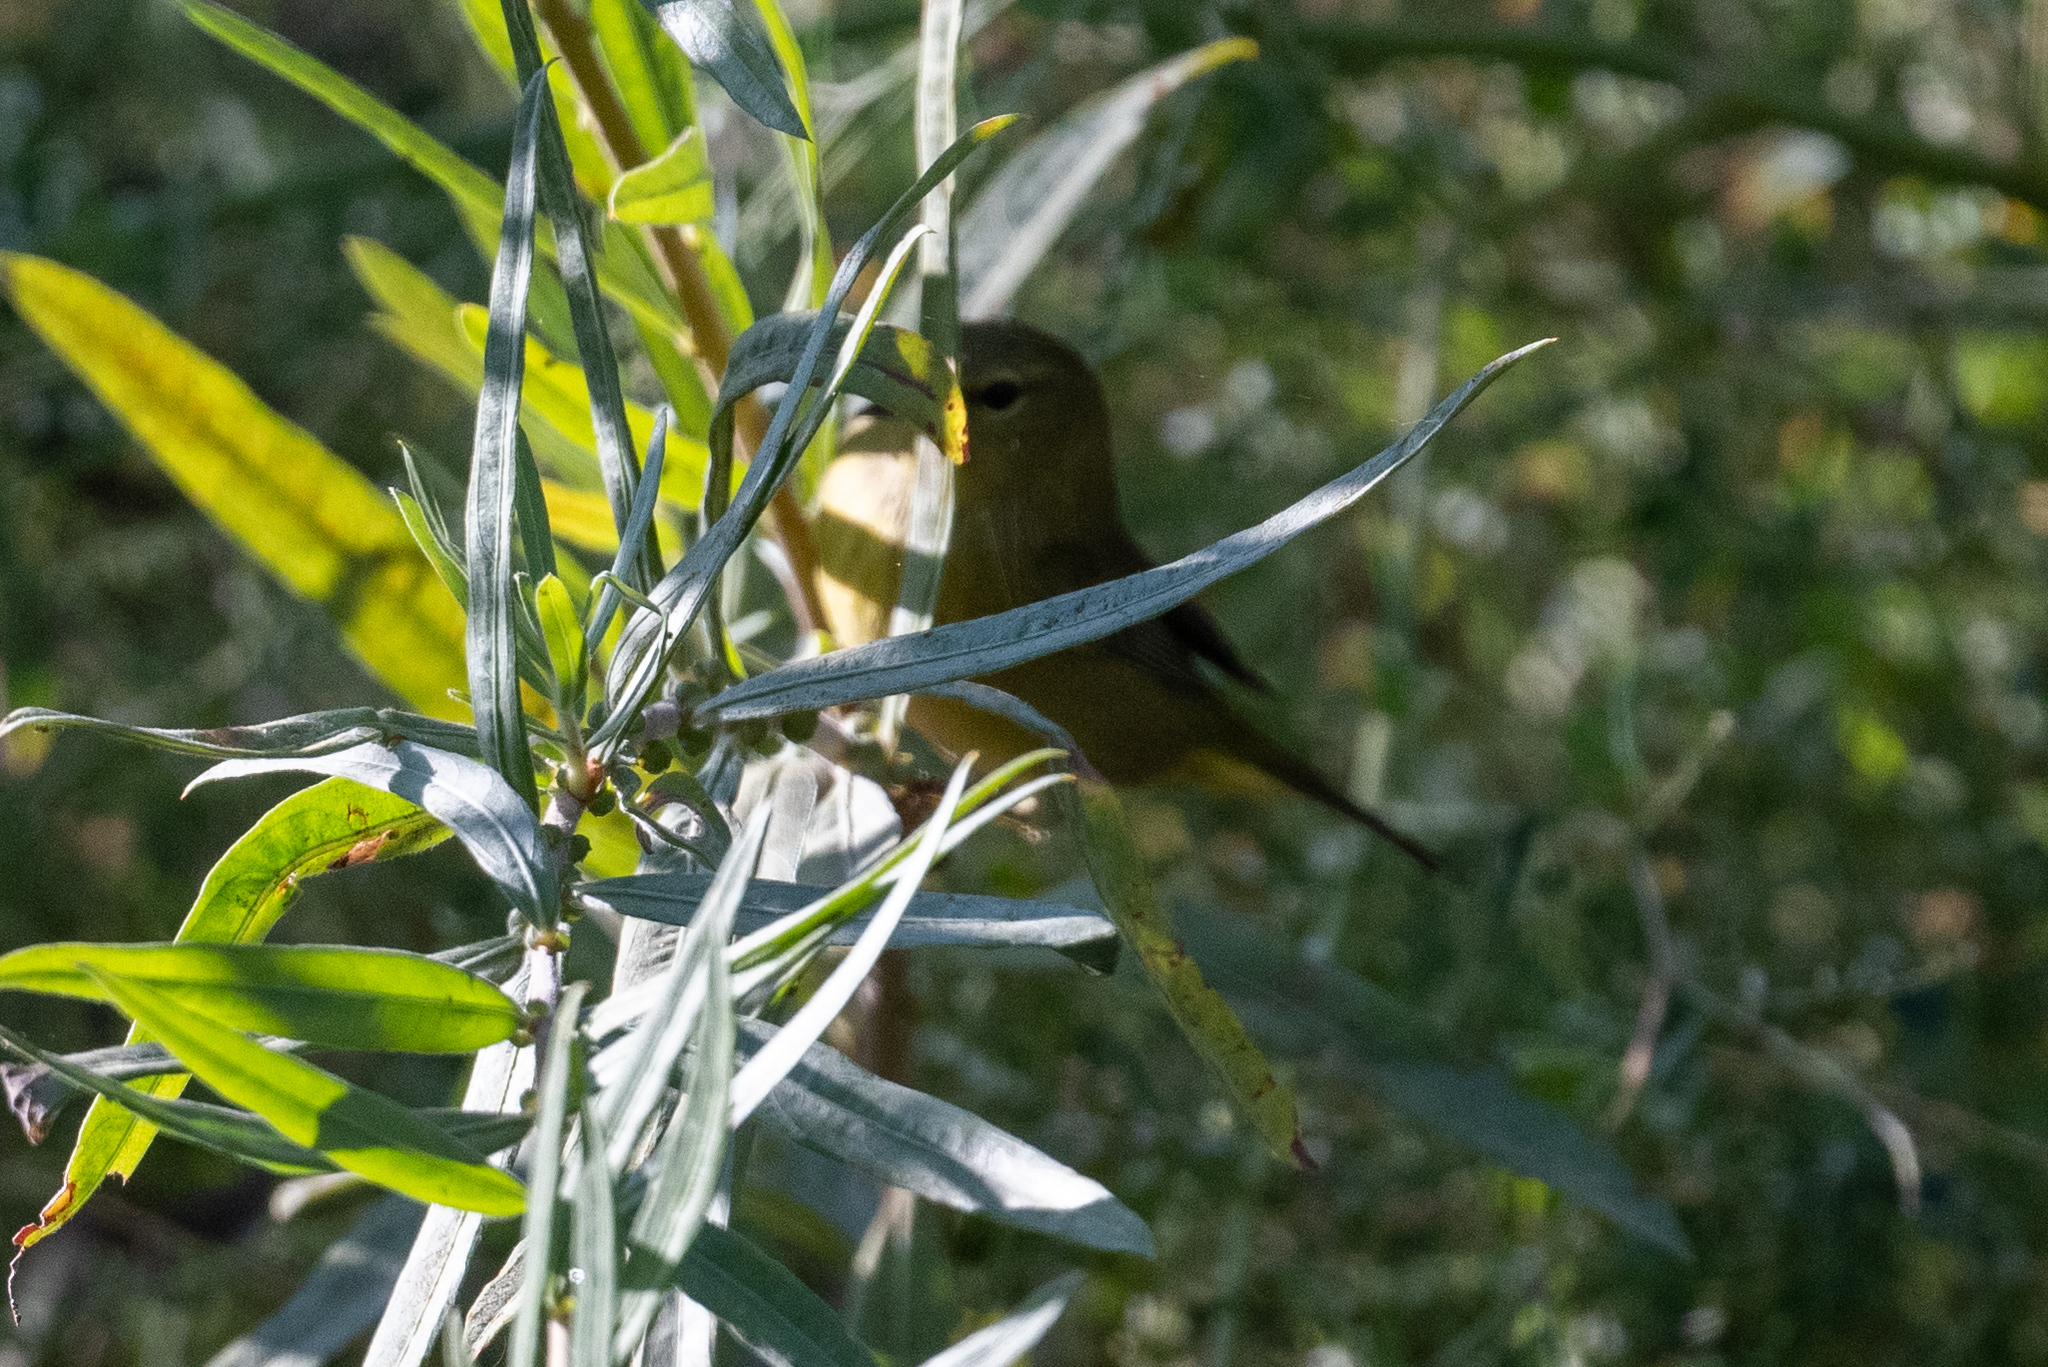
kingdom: Animalia
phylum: Chordata
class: Aves
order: Passeriformes
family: Parulidae
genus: Leiothlypis
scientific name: Leiothlypis celata
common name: Orange-crowned warbler
